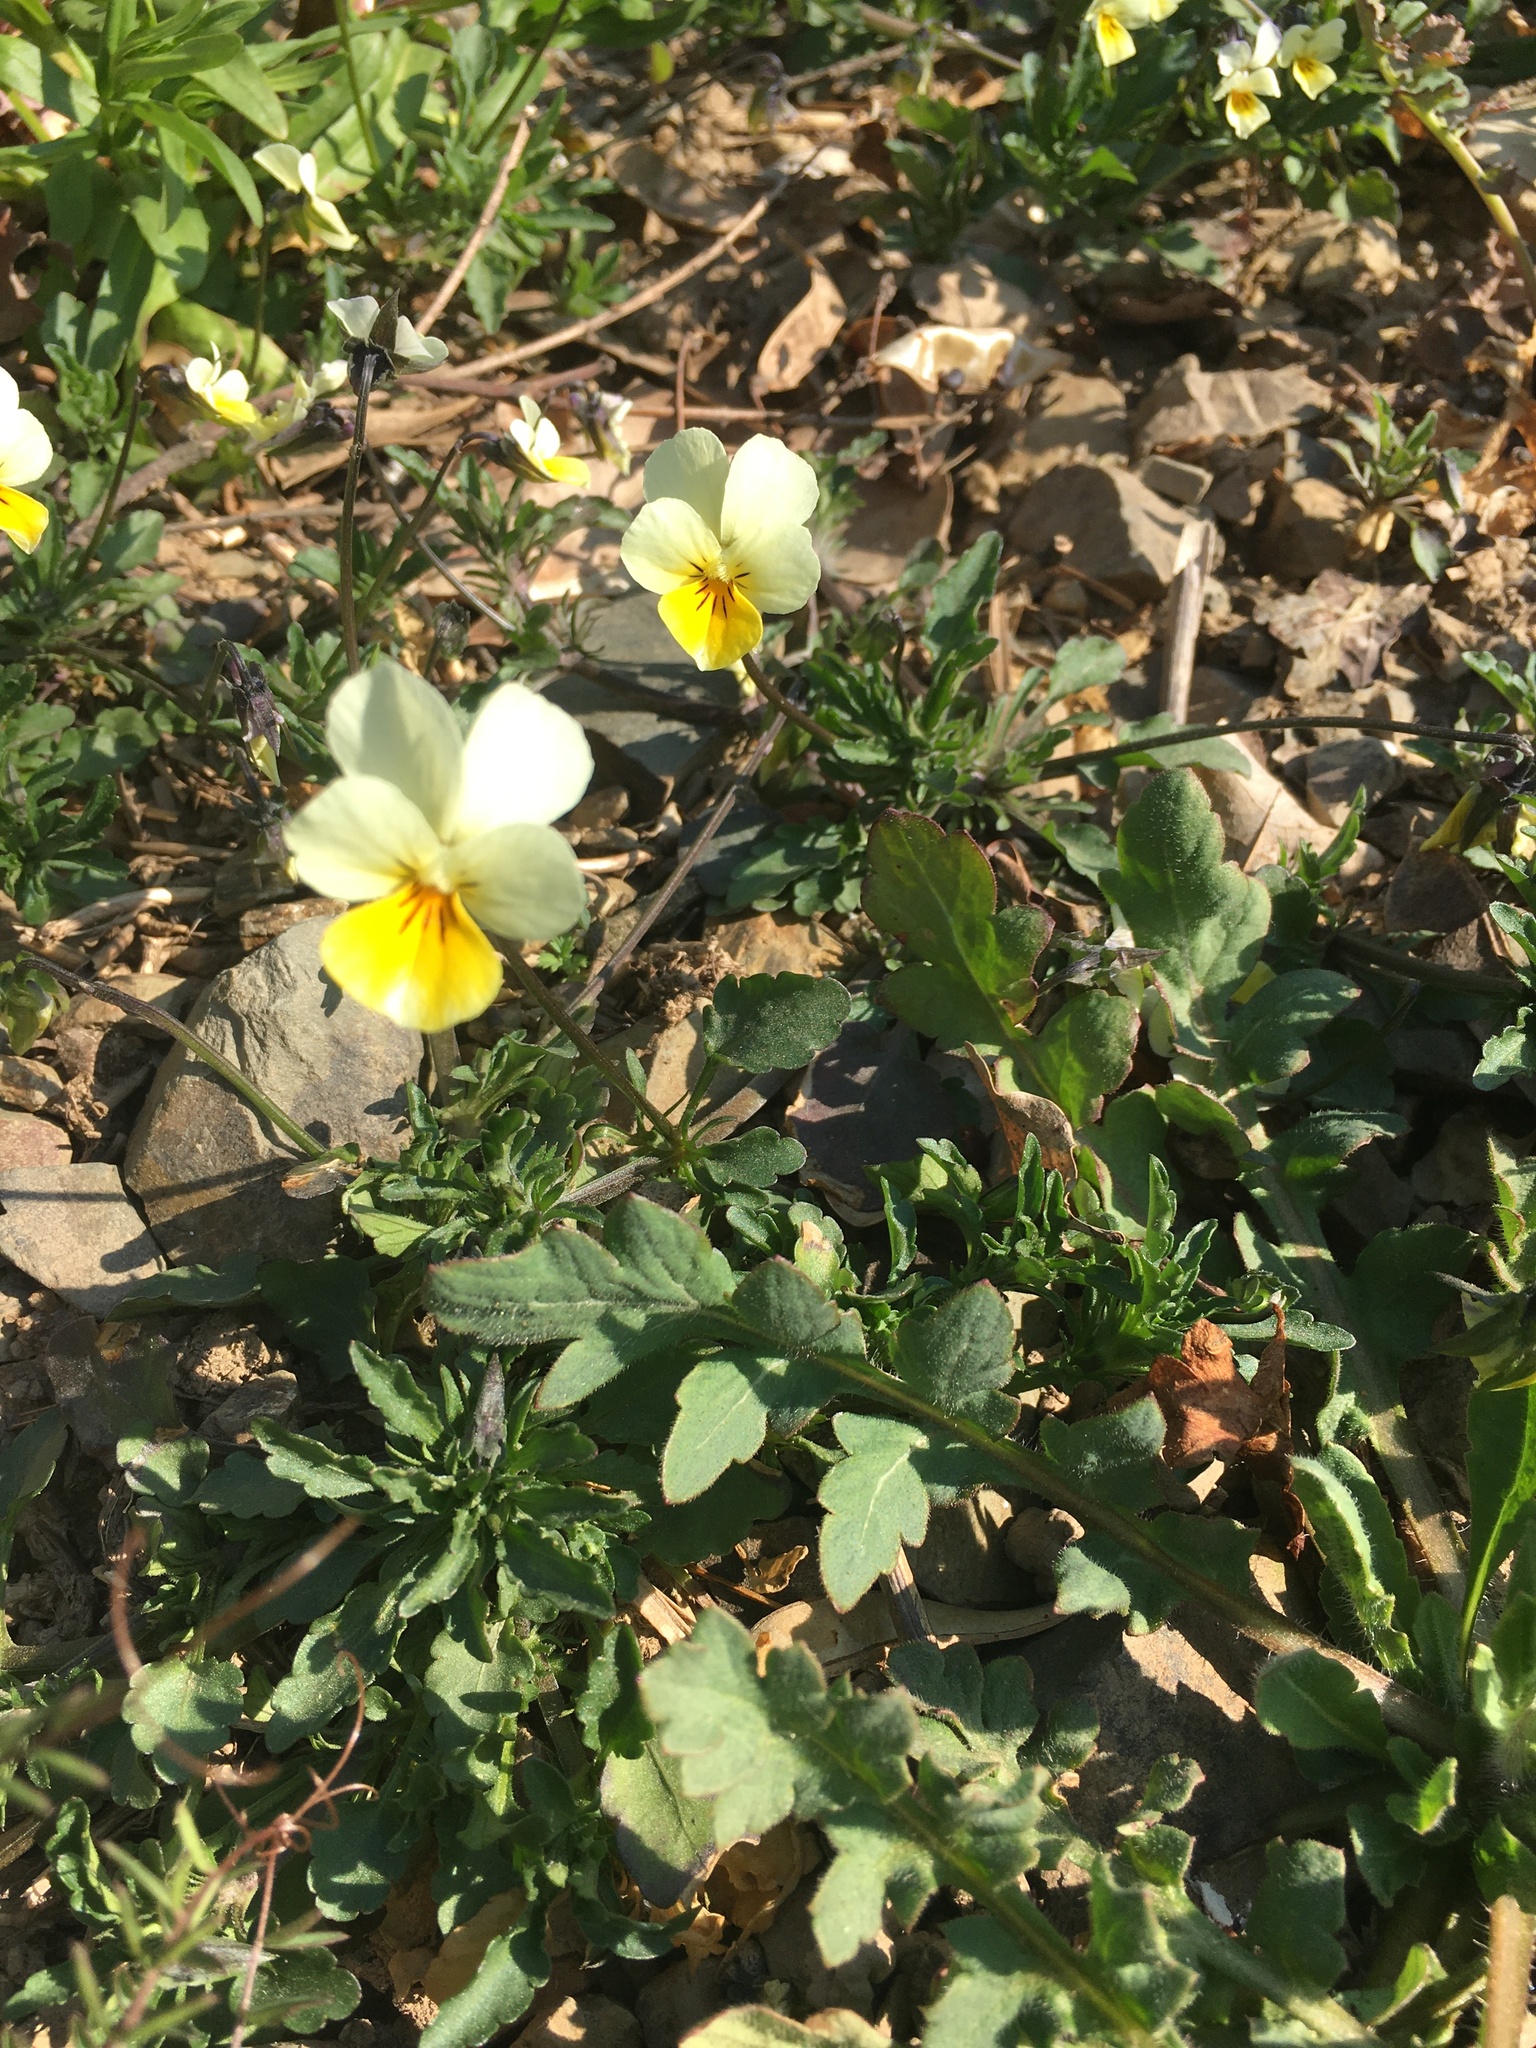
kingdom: Plantae
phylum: Tracheophyta
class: Magnoliopsida
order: Malpighiales
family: Violaceae
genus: Viola
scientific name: Viola arvensis
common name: Field pansy
